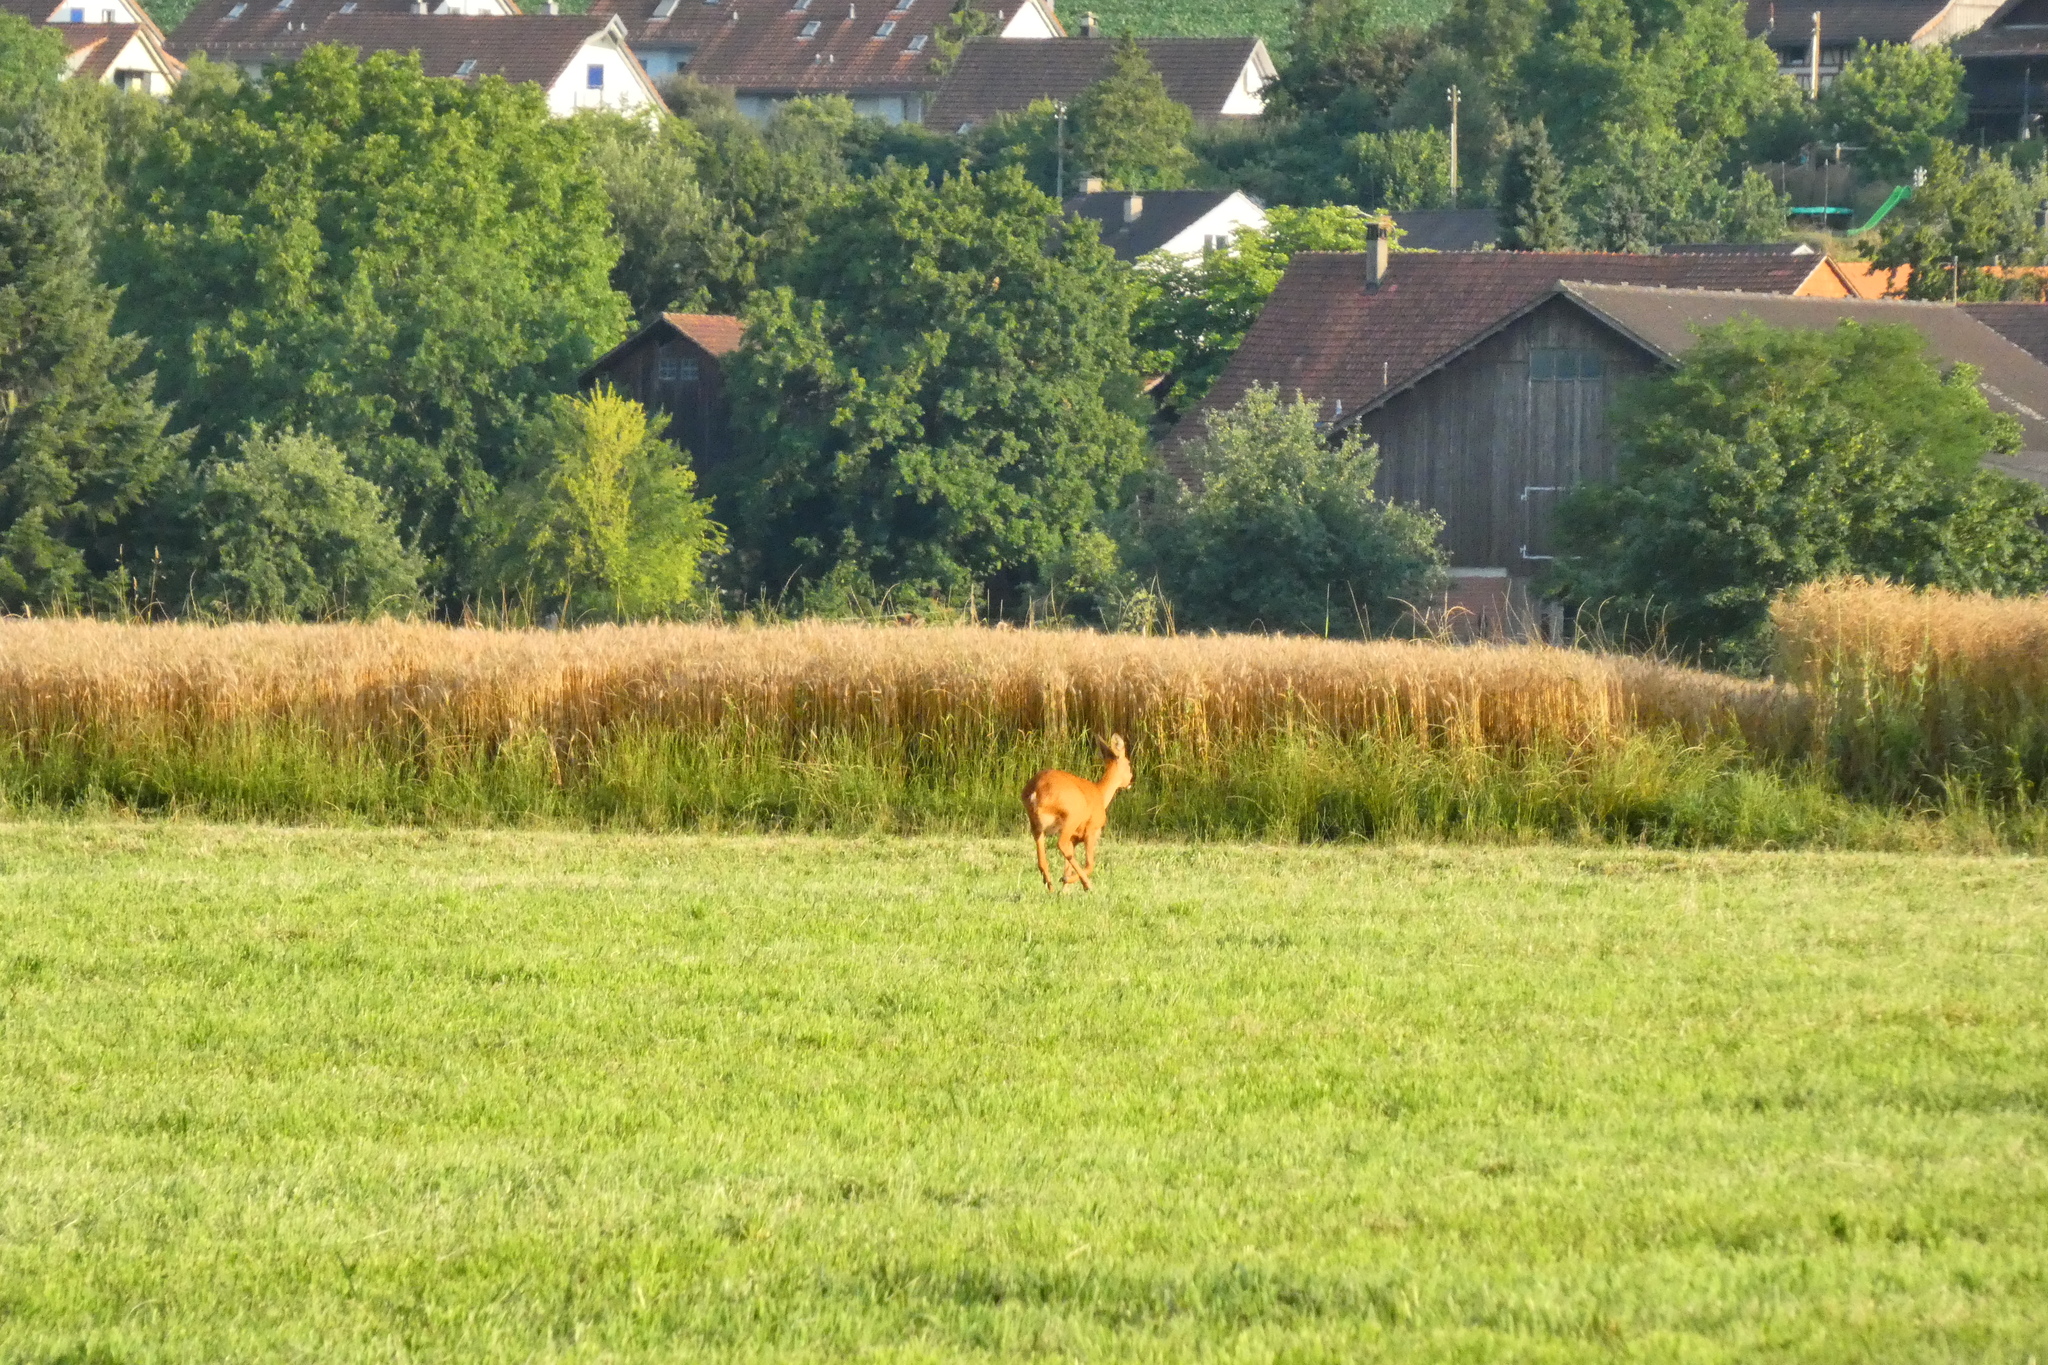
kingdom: Animalia
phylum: Chordata
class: Mammalia
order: Artiodactyla
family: Cervidae
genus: Capreolus
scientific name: Capreolus capreolus
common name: Western roe deer
